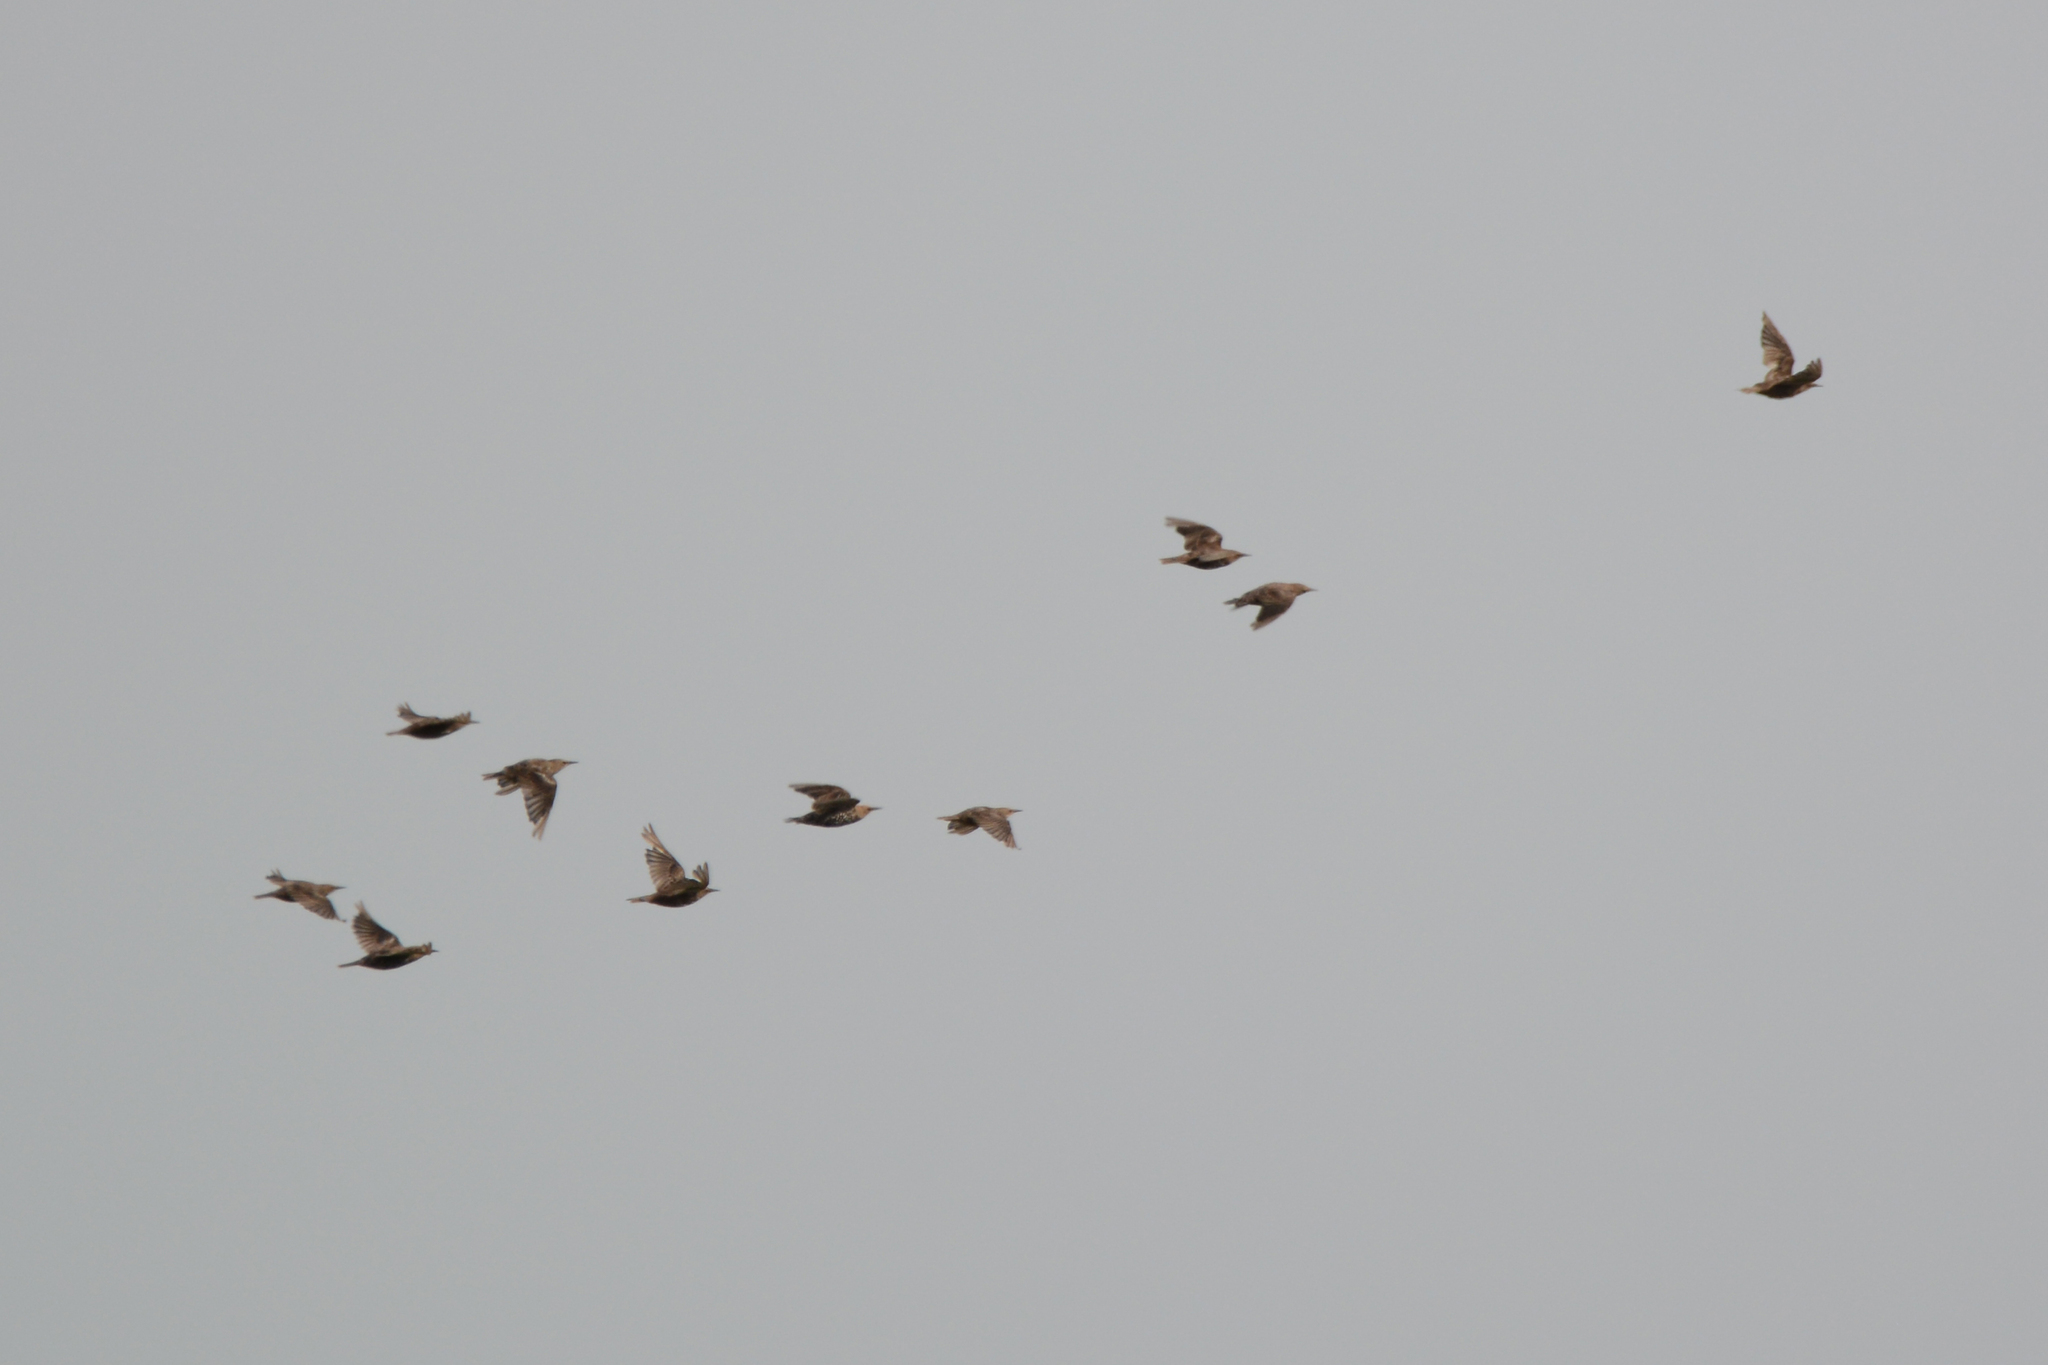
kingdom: Animalia
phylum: Chordata
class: Aves
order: Passeriformes
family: Sturnidae
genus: Sturnus
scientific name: Sturnus vulgaris
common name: Common starling
